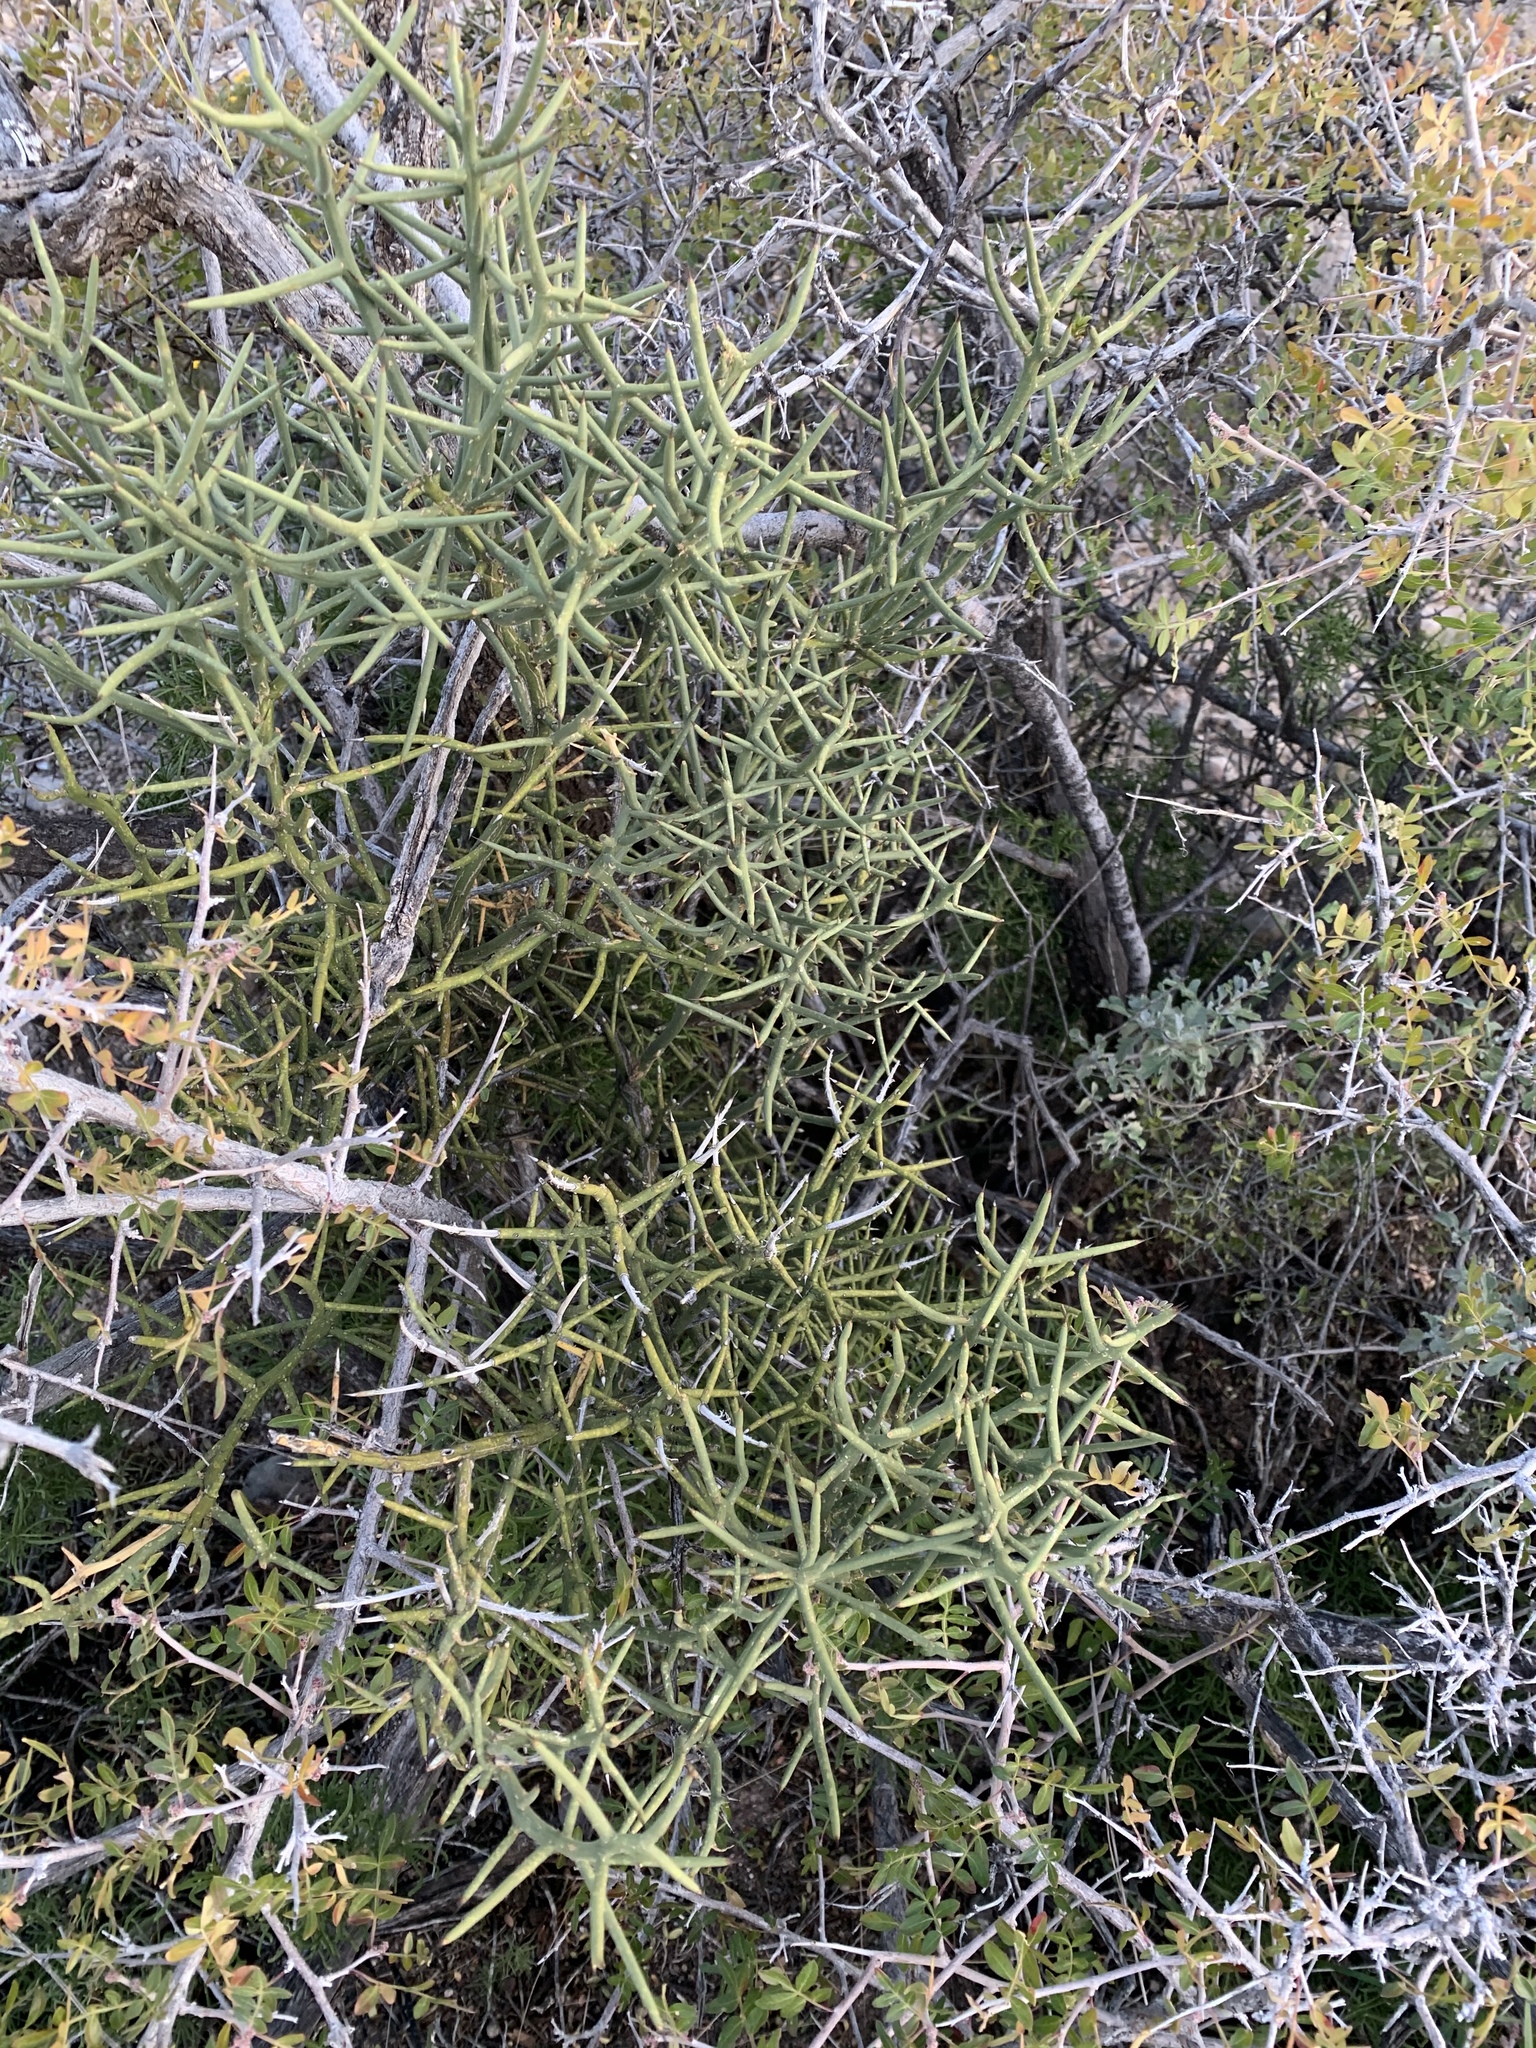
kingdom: Plantae
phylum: Tracheophyta
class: Magnoliopsida
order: Brassicales
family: Koeberliniaceae
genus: Koeberlinia
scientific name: Koeberlinia spinosa
